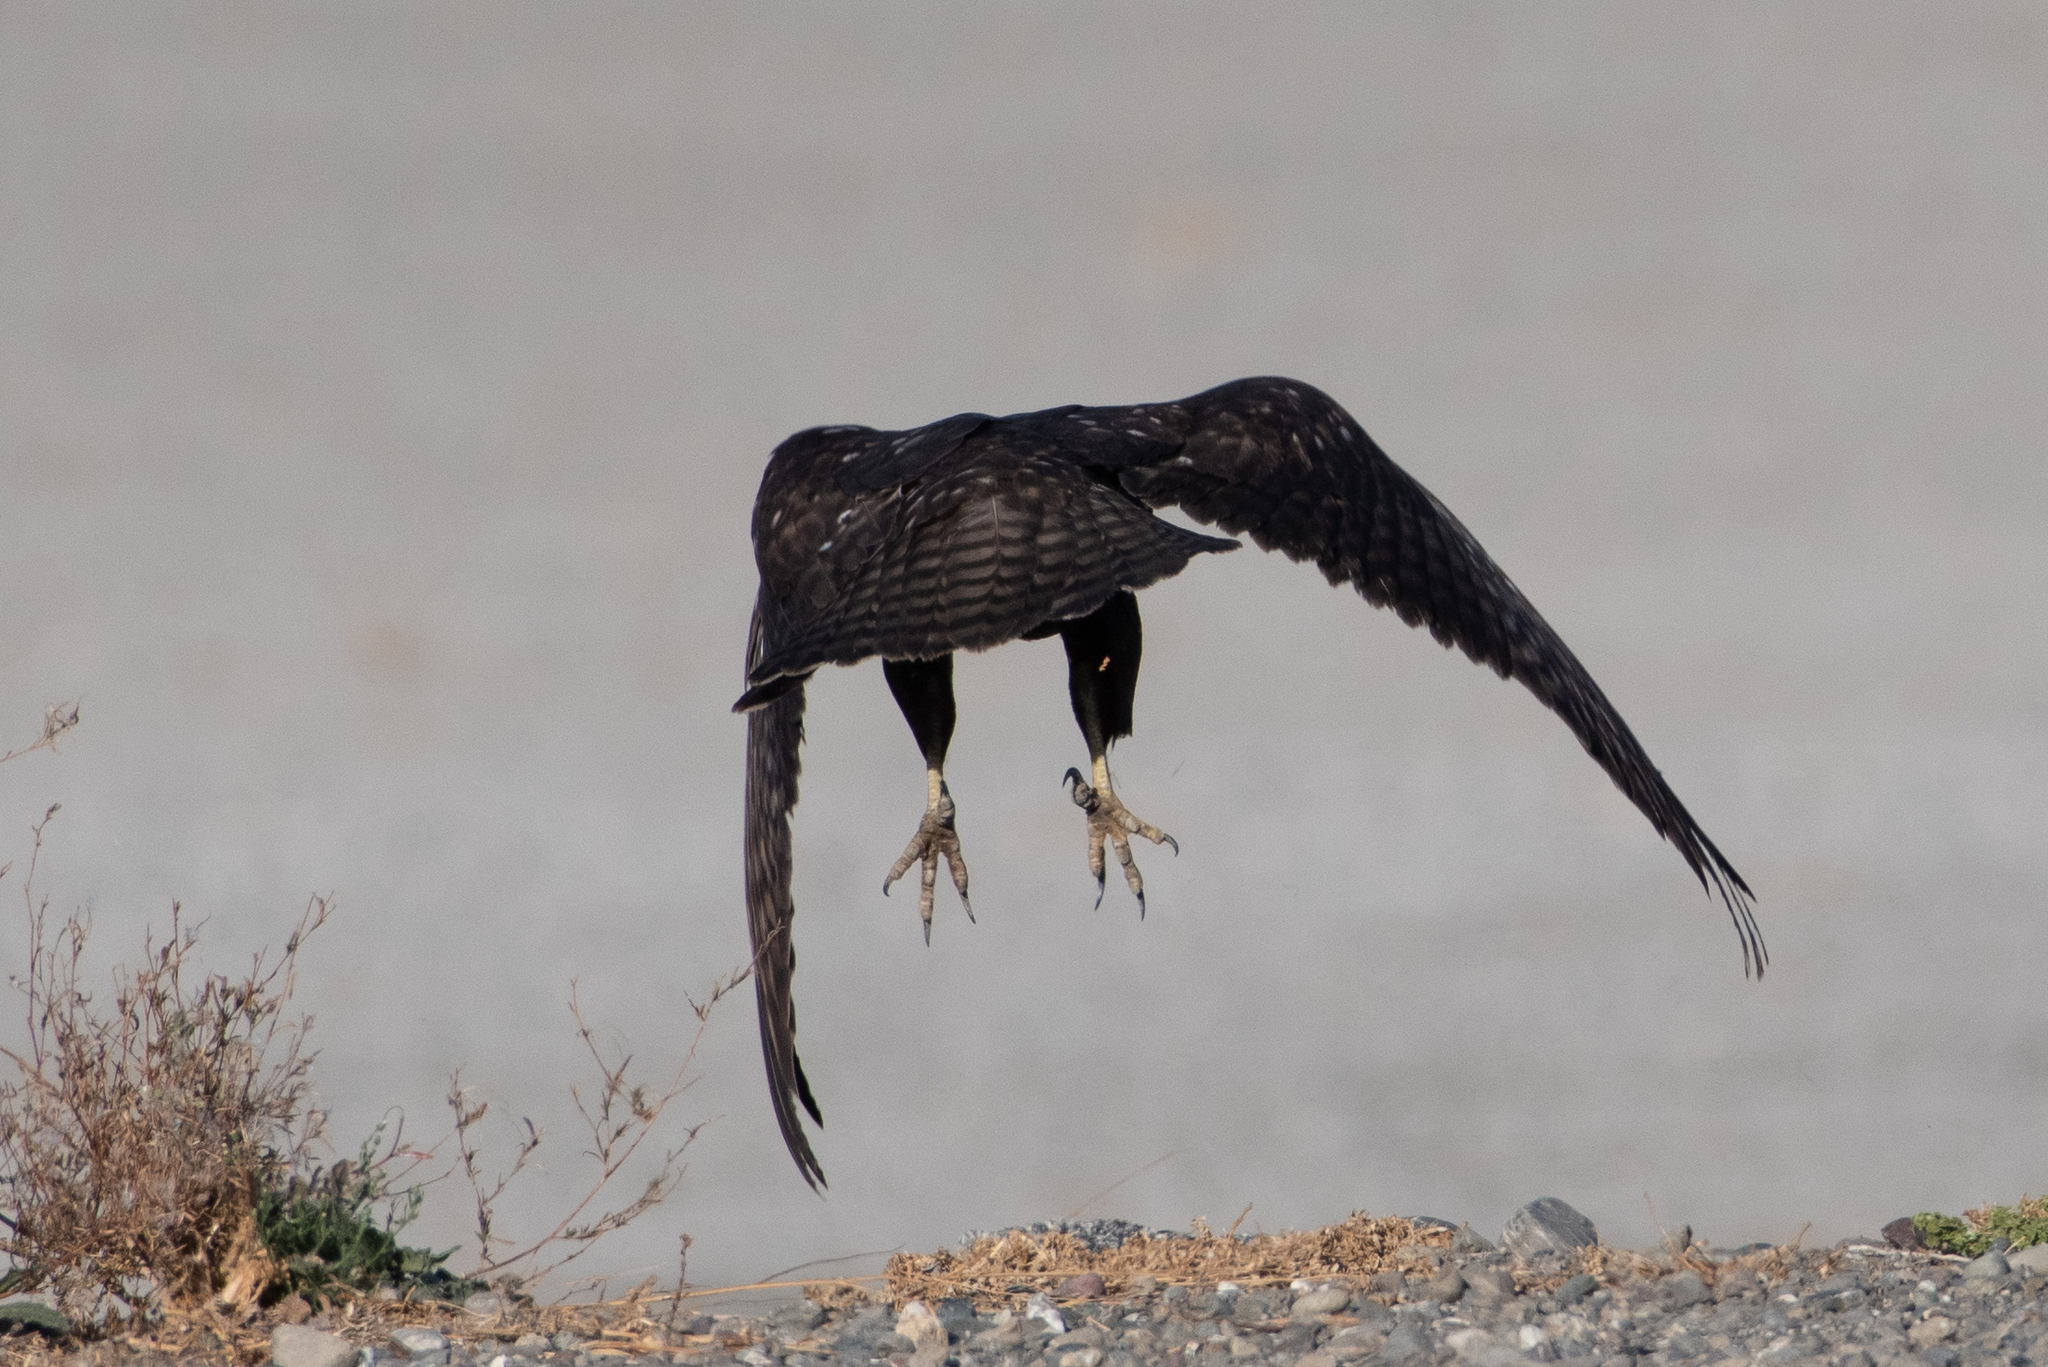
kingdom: Animalia
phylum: Chordata
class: Aves
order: Accipitriformes
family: Accipitridae
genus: Buteo
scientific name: Buteo jamaicensis
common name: Red-tailed hawk
